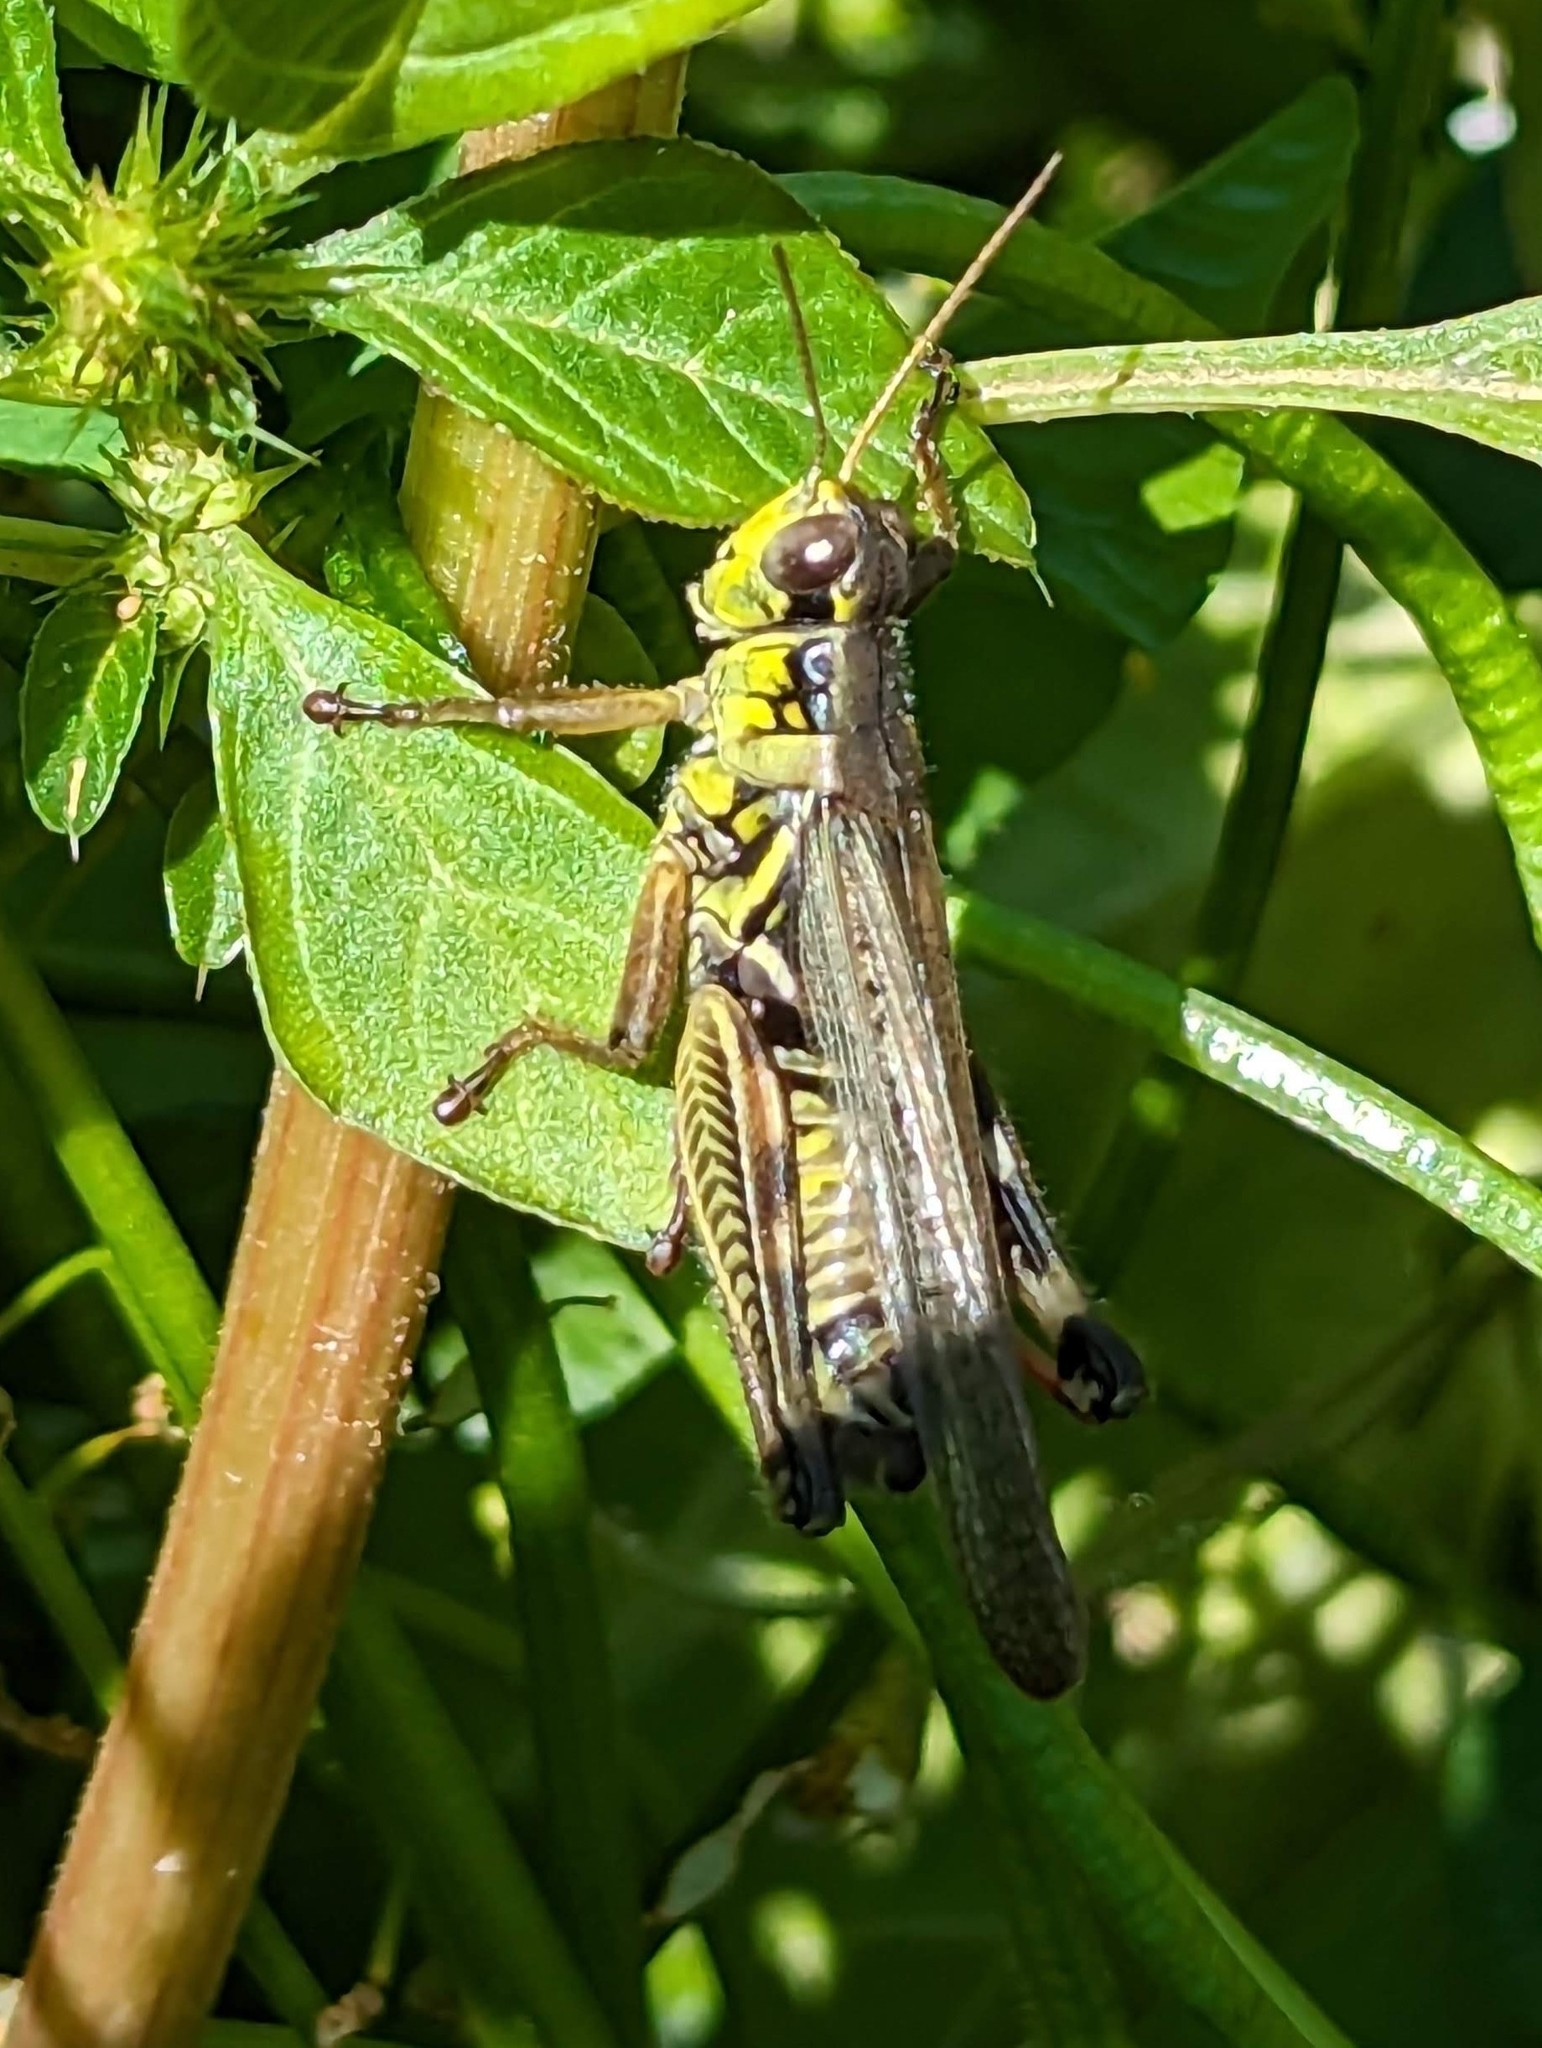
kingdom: Animalia
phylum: Arthropoda
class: Insecta
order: Orthoptera
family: Acrididae
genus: Melanoplus
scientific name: Melanoplus femurrubrum
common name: Red-legged grasshopper
